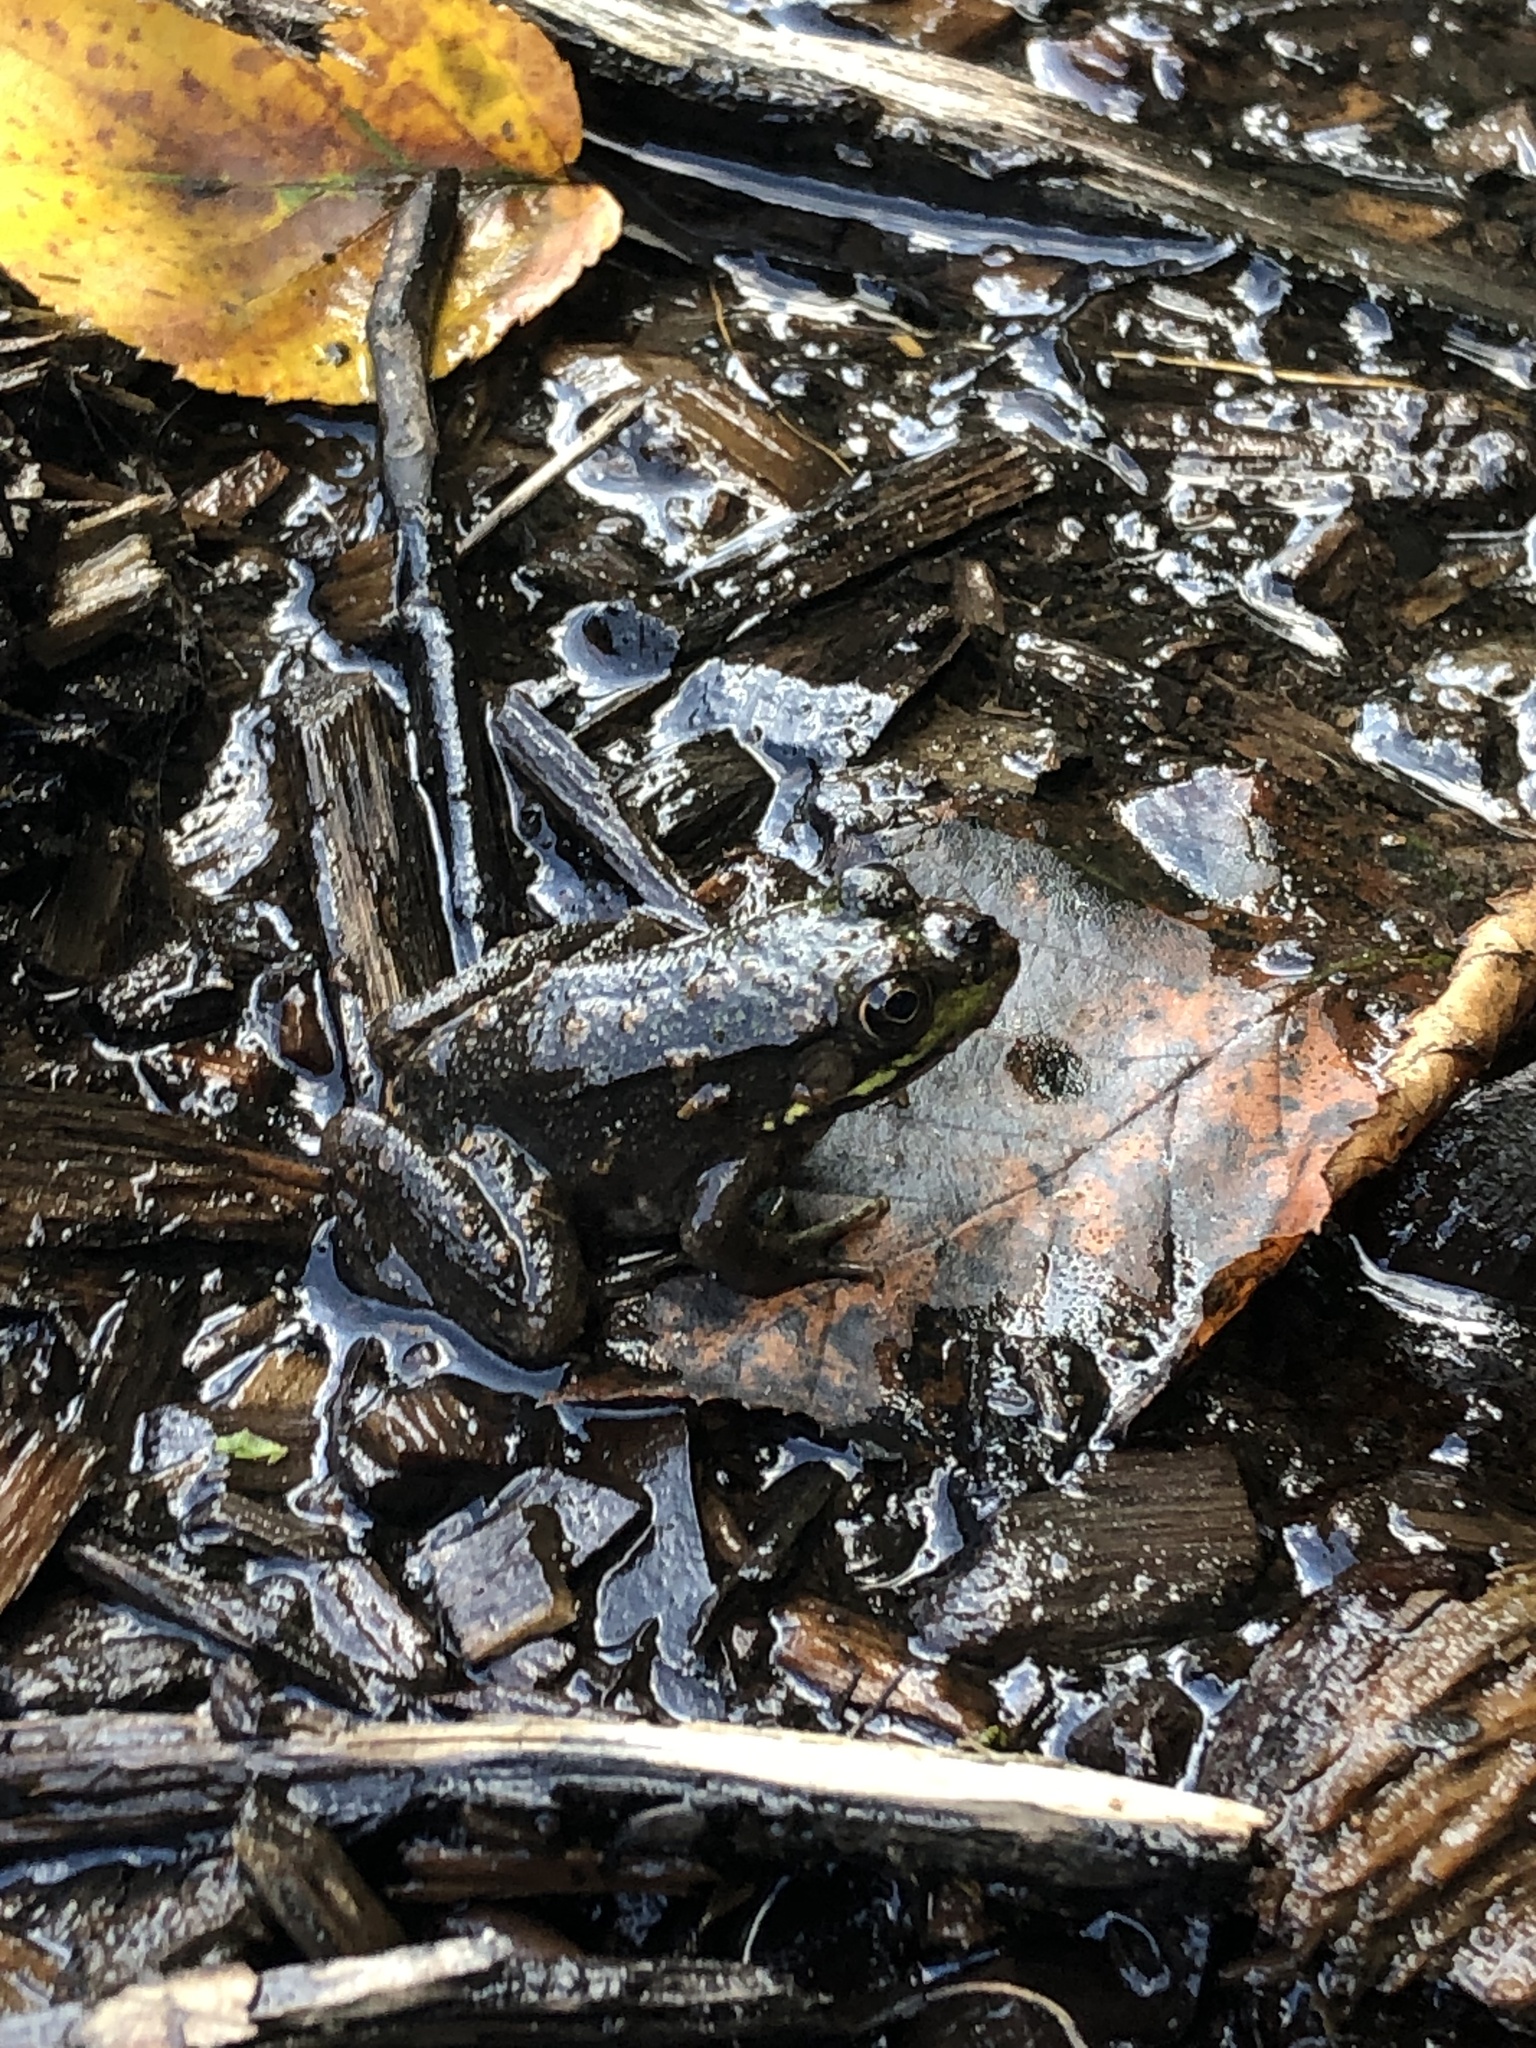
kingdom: Animalia
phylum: Chordata
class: Amphibia
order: Anura
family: Ranidae
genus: Lithobates
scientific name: Lithobates clamitans
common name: Green frog
